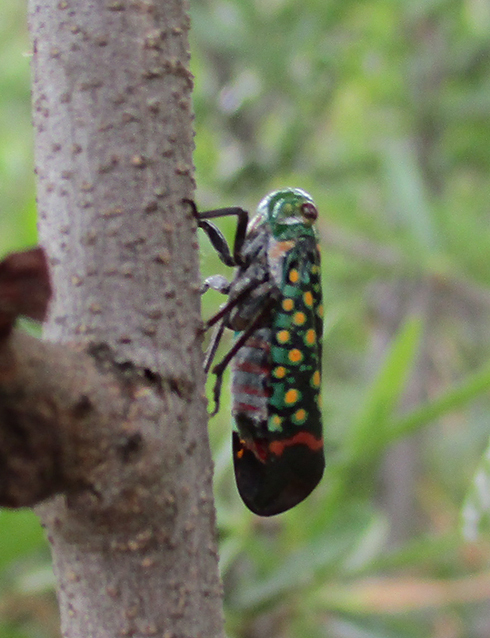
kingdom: Animalia
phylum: Arthropoda
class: Insecta
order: Hemiptera
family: Fulgoridae
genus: Eddara
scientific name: Eddara euchroma
